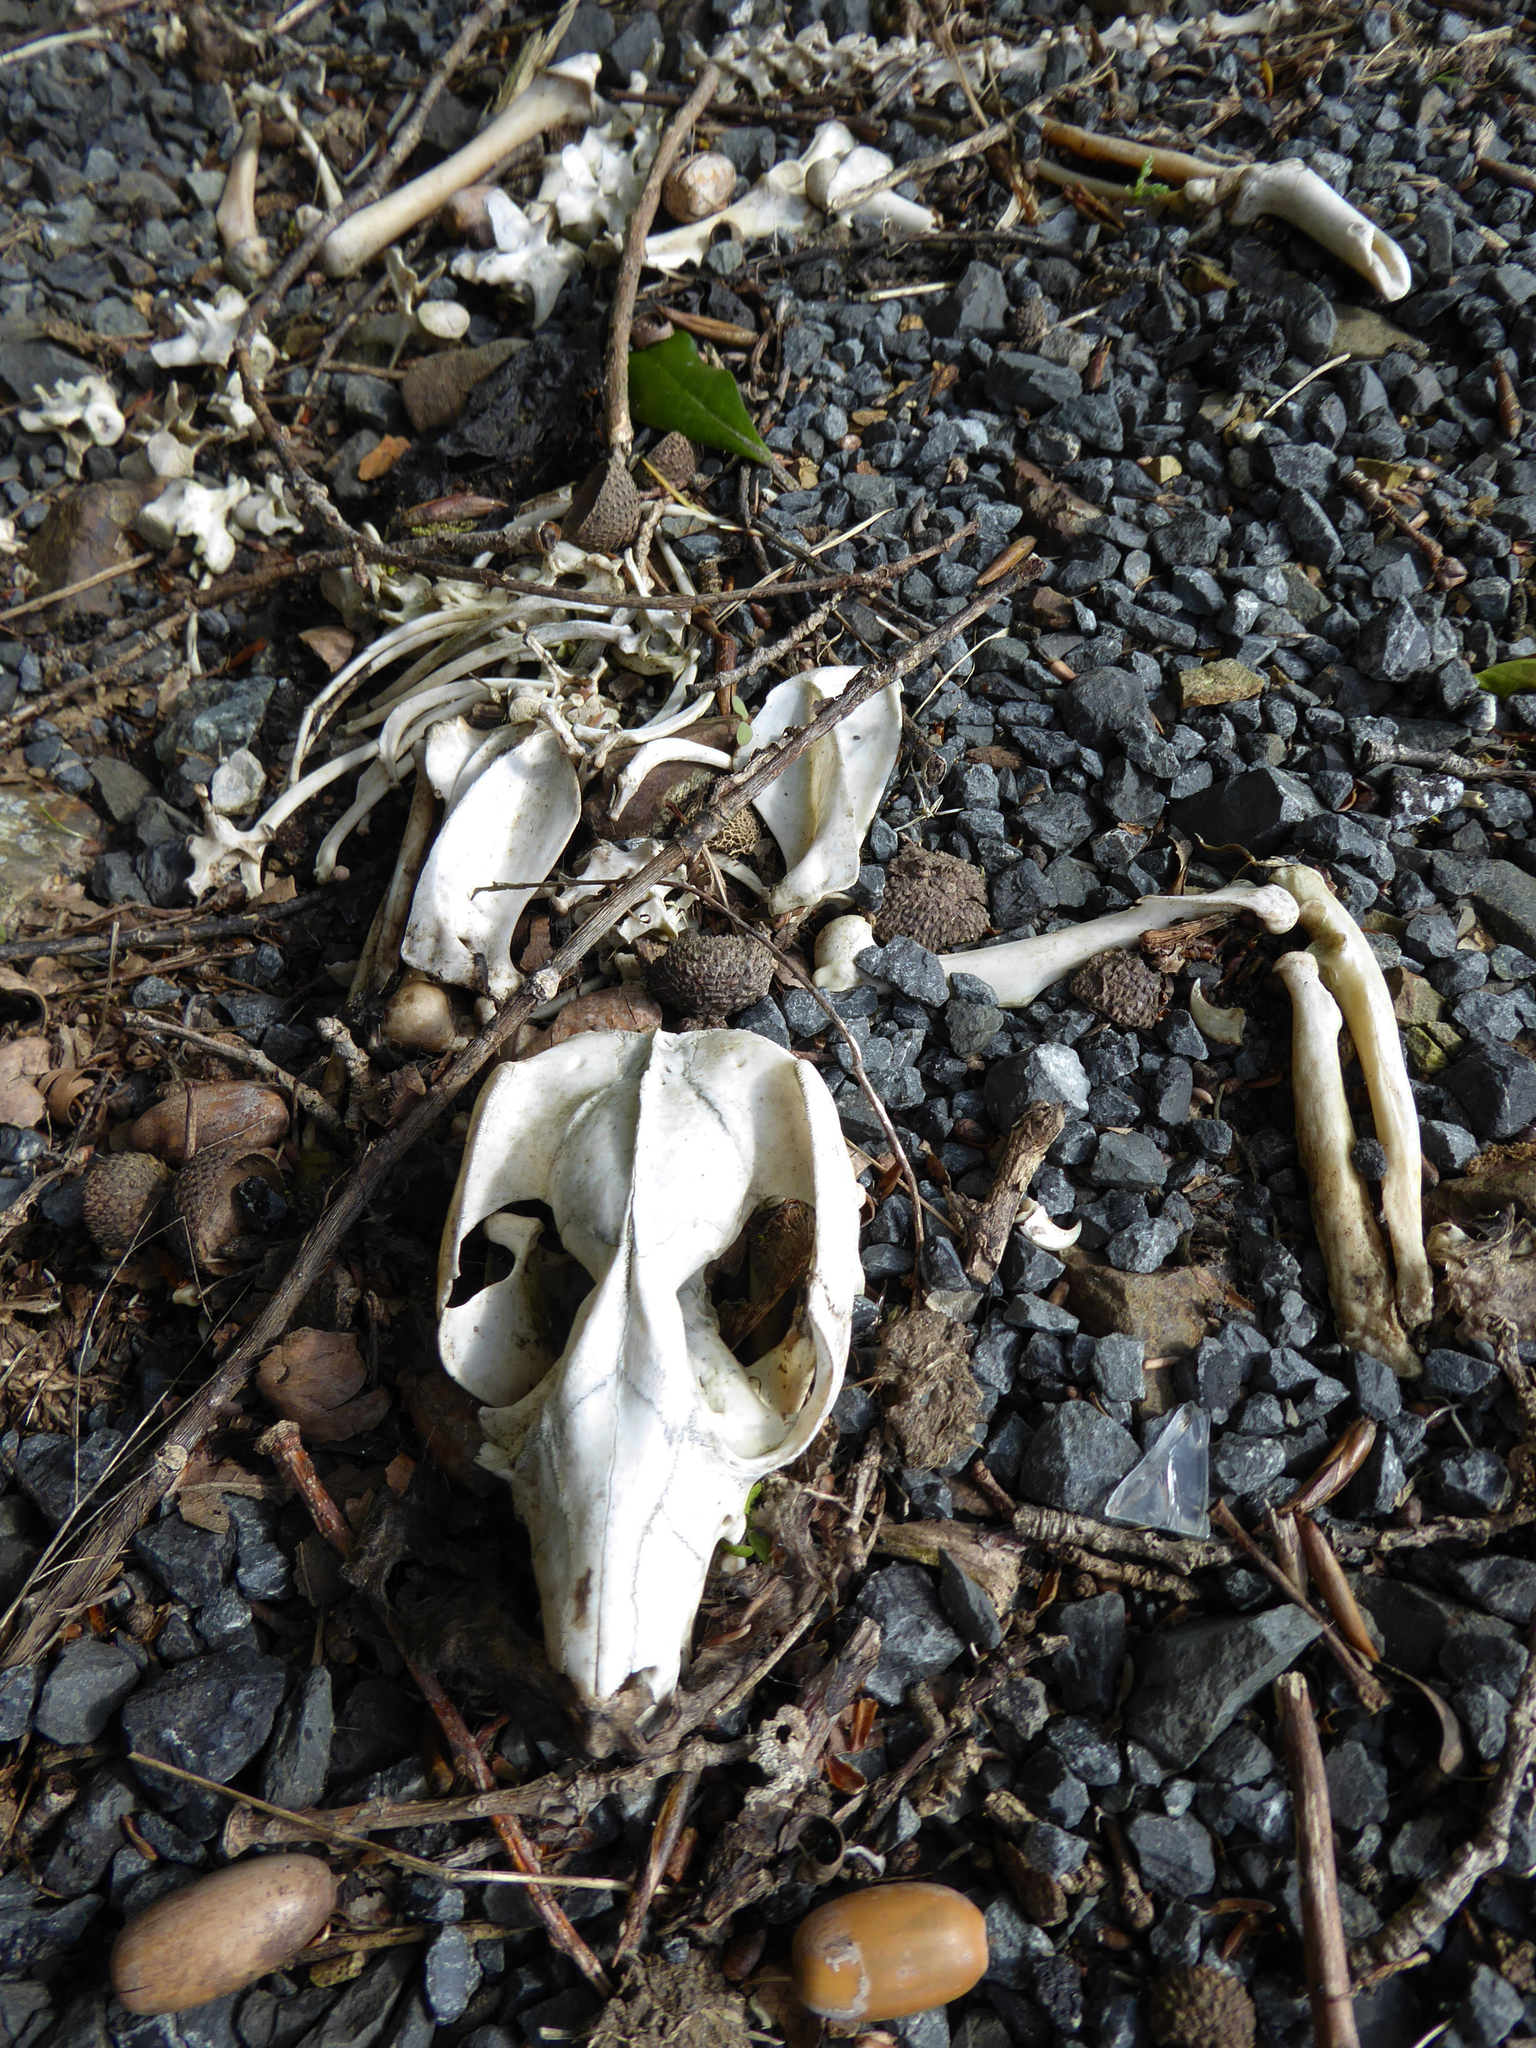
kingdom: Animalia
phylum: Chordata
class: Mammalia
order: Diprotodontia
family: Phalangeridae
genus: Trichosurus
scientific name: Trichosurus vulpecula
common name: Common brushtail
